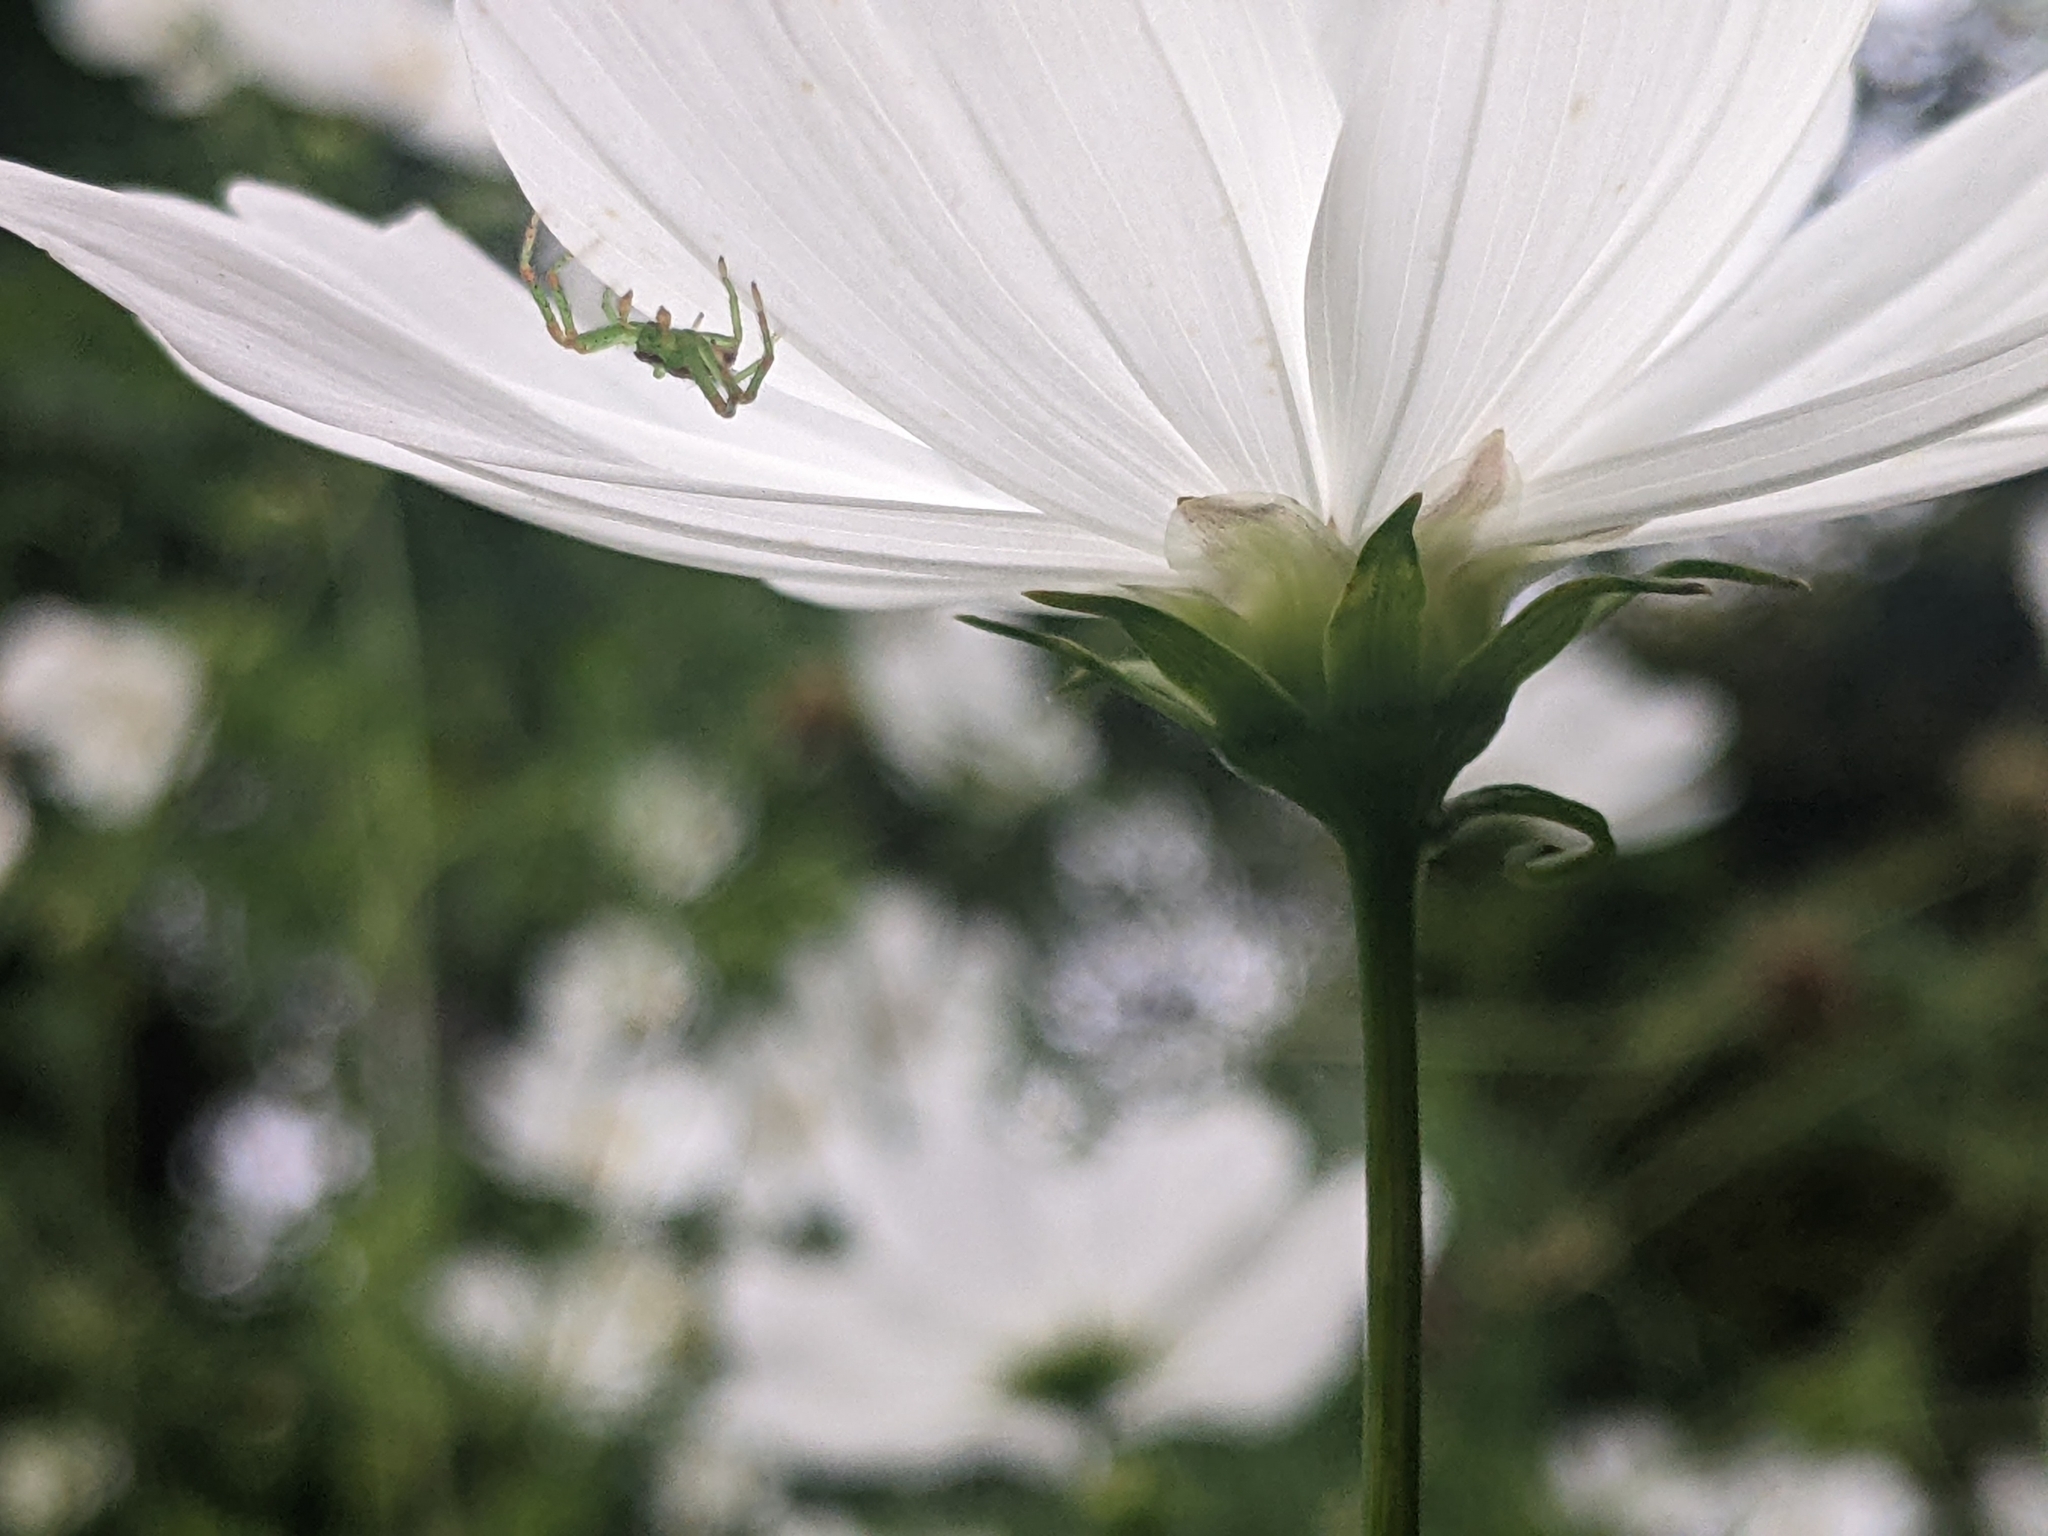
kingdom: Animalia
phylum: Arthropoda
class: Arachnida
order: Araneae
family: Thomisidae
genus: Diaea
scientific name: Diaea dorsata
